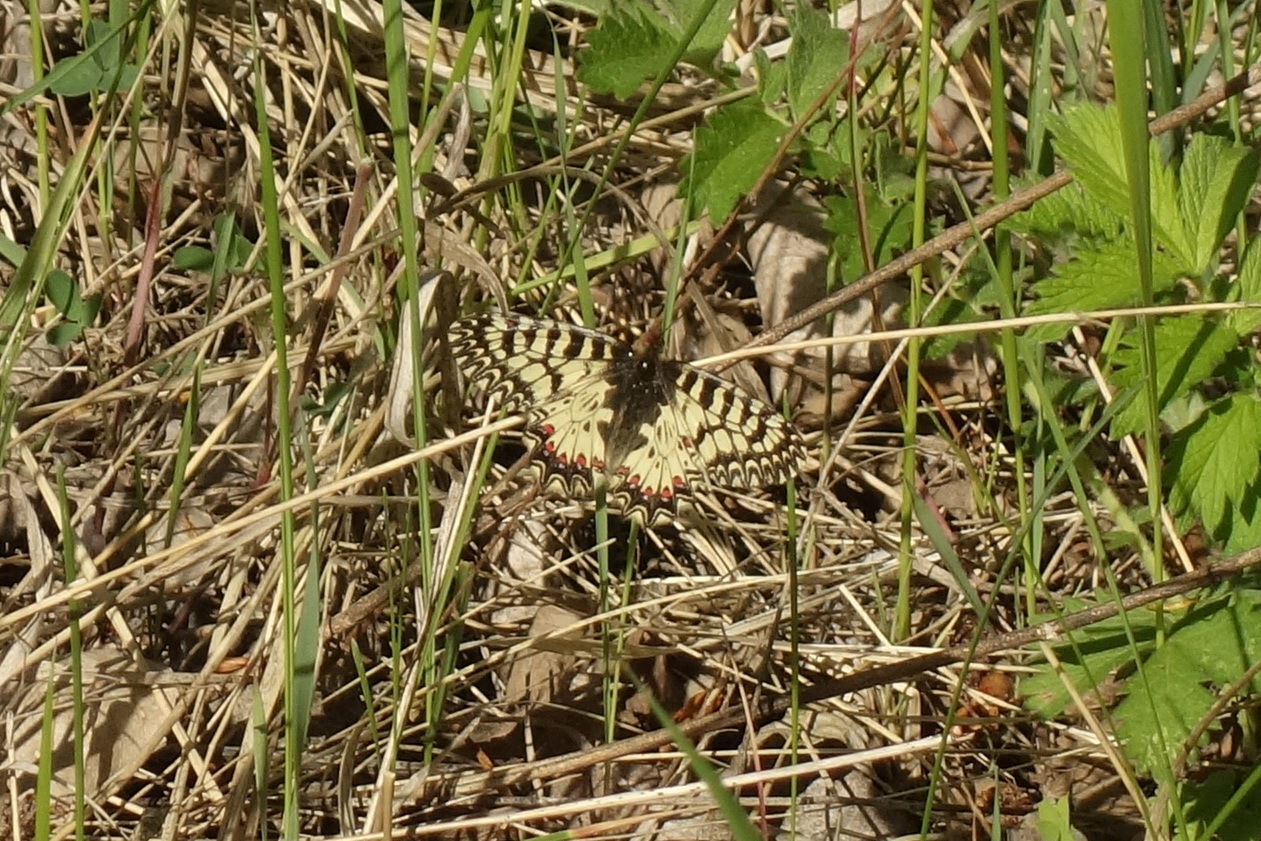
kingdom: Animalia
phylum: Arthropoda
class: Insecta
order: Lepidoptera
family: Papilionidae
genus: Zerynthia
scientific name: Zerynthia polyxena
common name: Southern festoon
